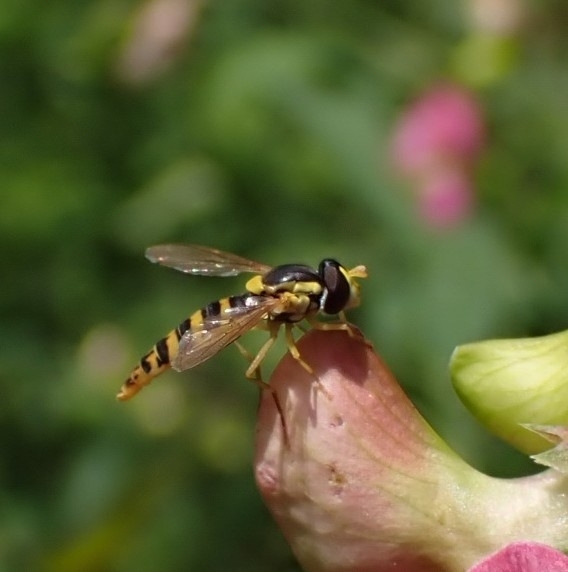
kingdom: Animalia
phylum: Arthropoda
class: Insecta
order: Diptera
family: Syrphidae
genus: Sphaerophoria
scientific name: Sphaerophoria scripta
